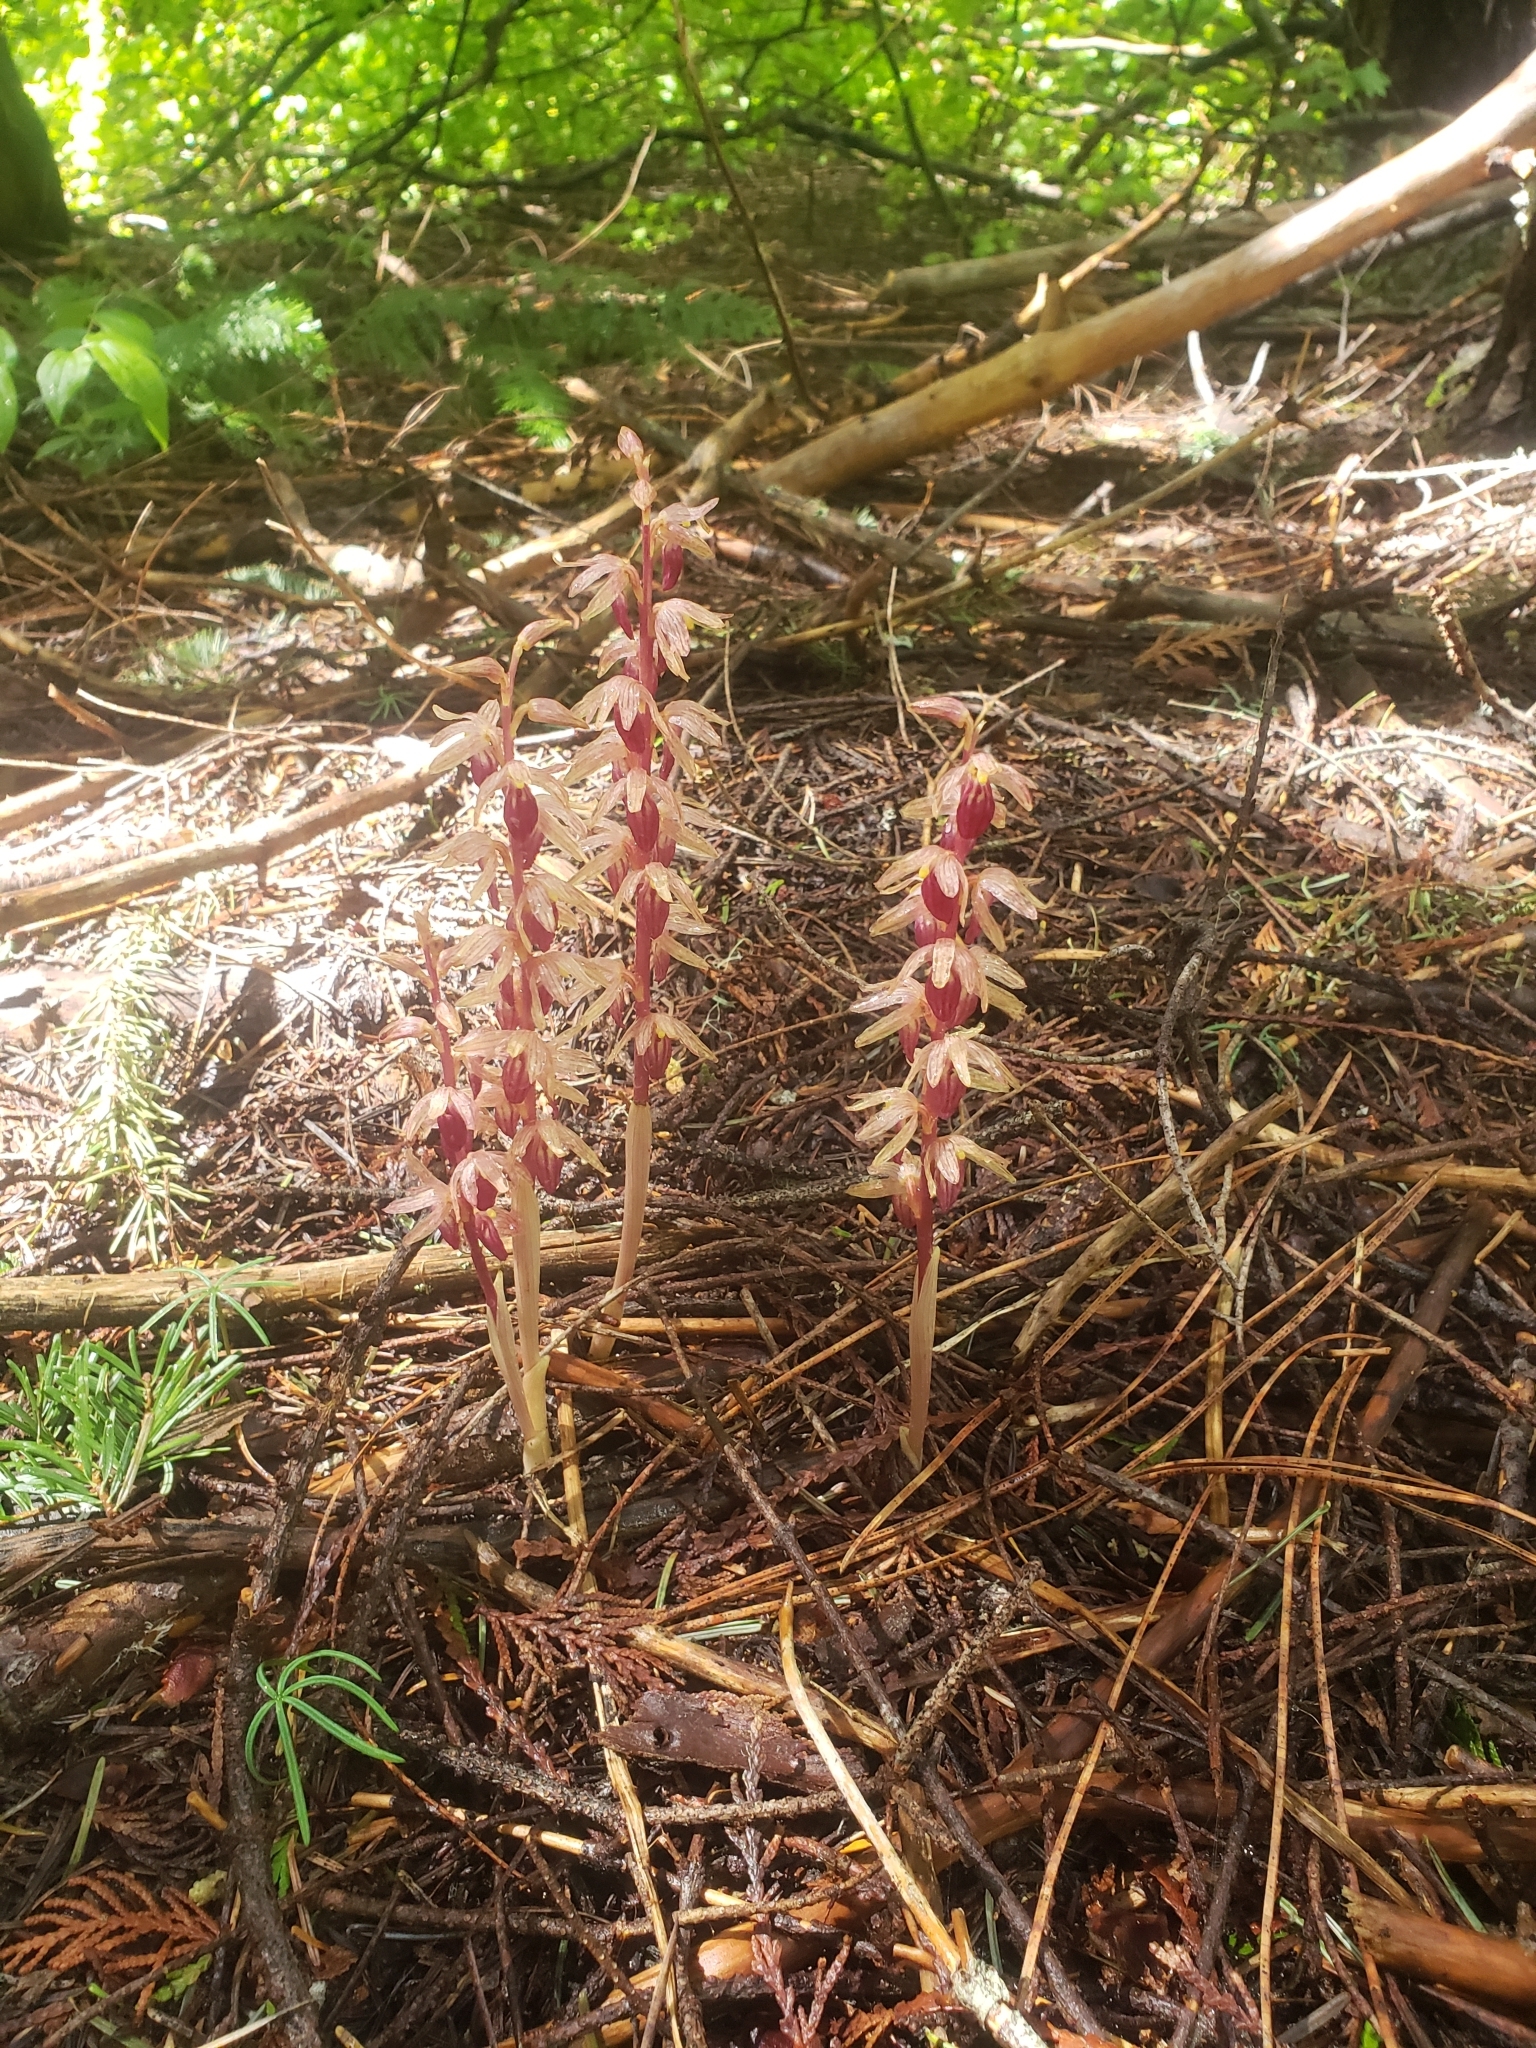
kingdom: Plantae
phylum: Tracheophyta
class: Liliopsida
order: Asparagales
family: Orchidaceae
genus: Corallorhiza
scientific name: Corallorhiza striata
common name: Hooded coralroot
